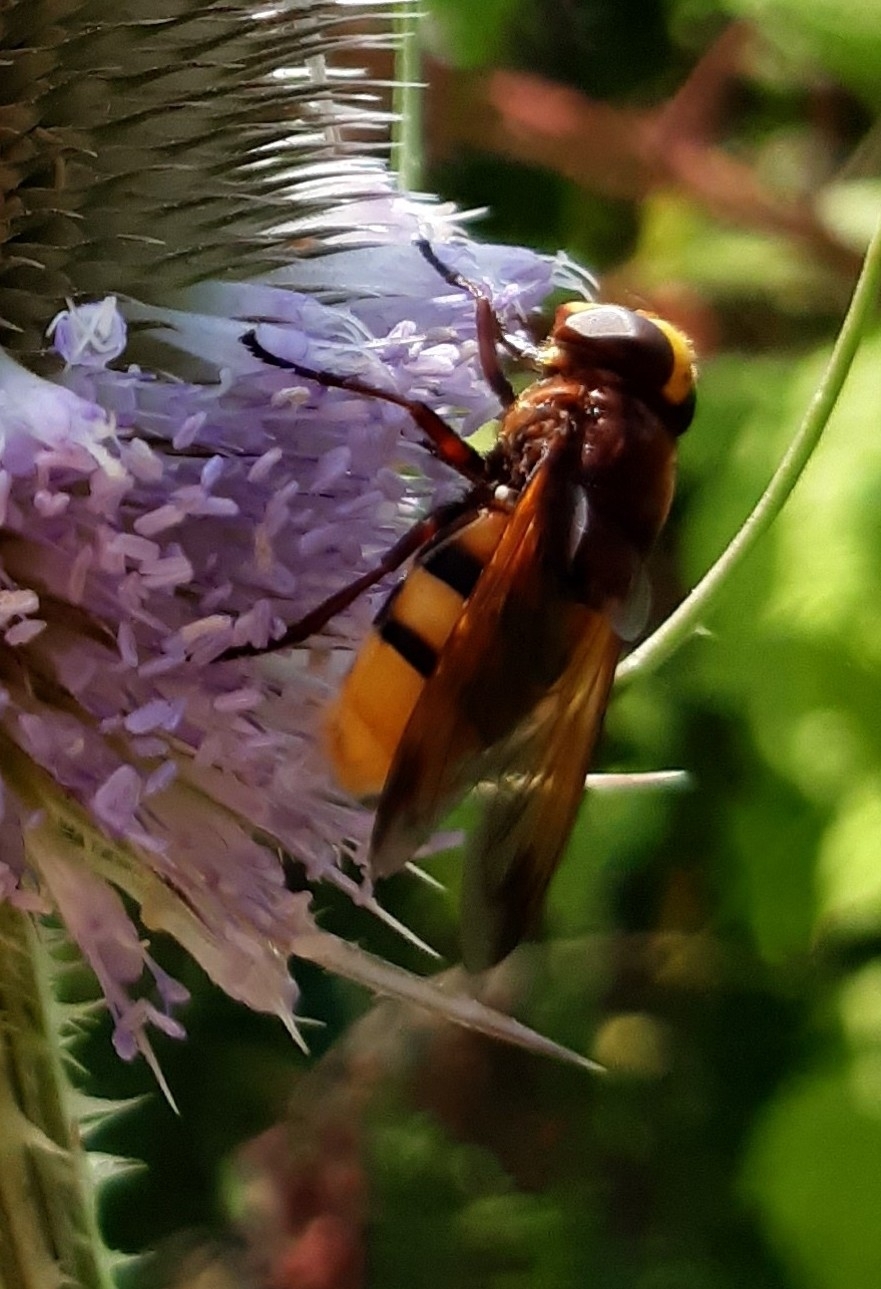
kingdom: Animalia
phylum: Arthropoda
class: Insecta
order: Diptera
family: Syrphidae
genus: Volucella
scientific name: Volucella zonaria
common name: Hornet hoverfly
